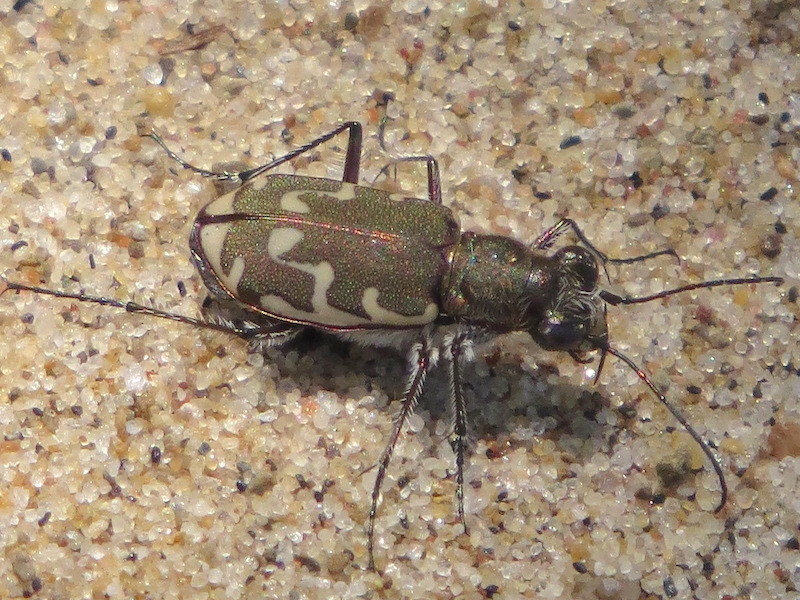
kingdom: Animalia
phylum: Arthropoda
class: Insecta
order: Coleoptera
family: Carabidae
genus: Cicindela
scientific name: Cicindela repanda
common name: Bronzed tiger beetle
